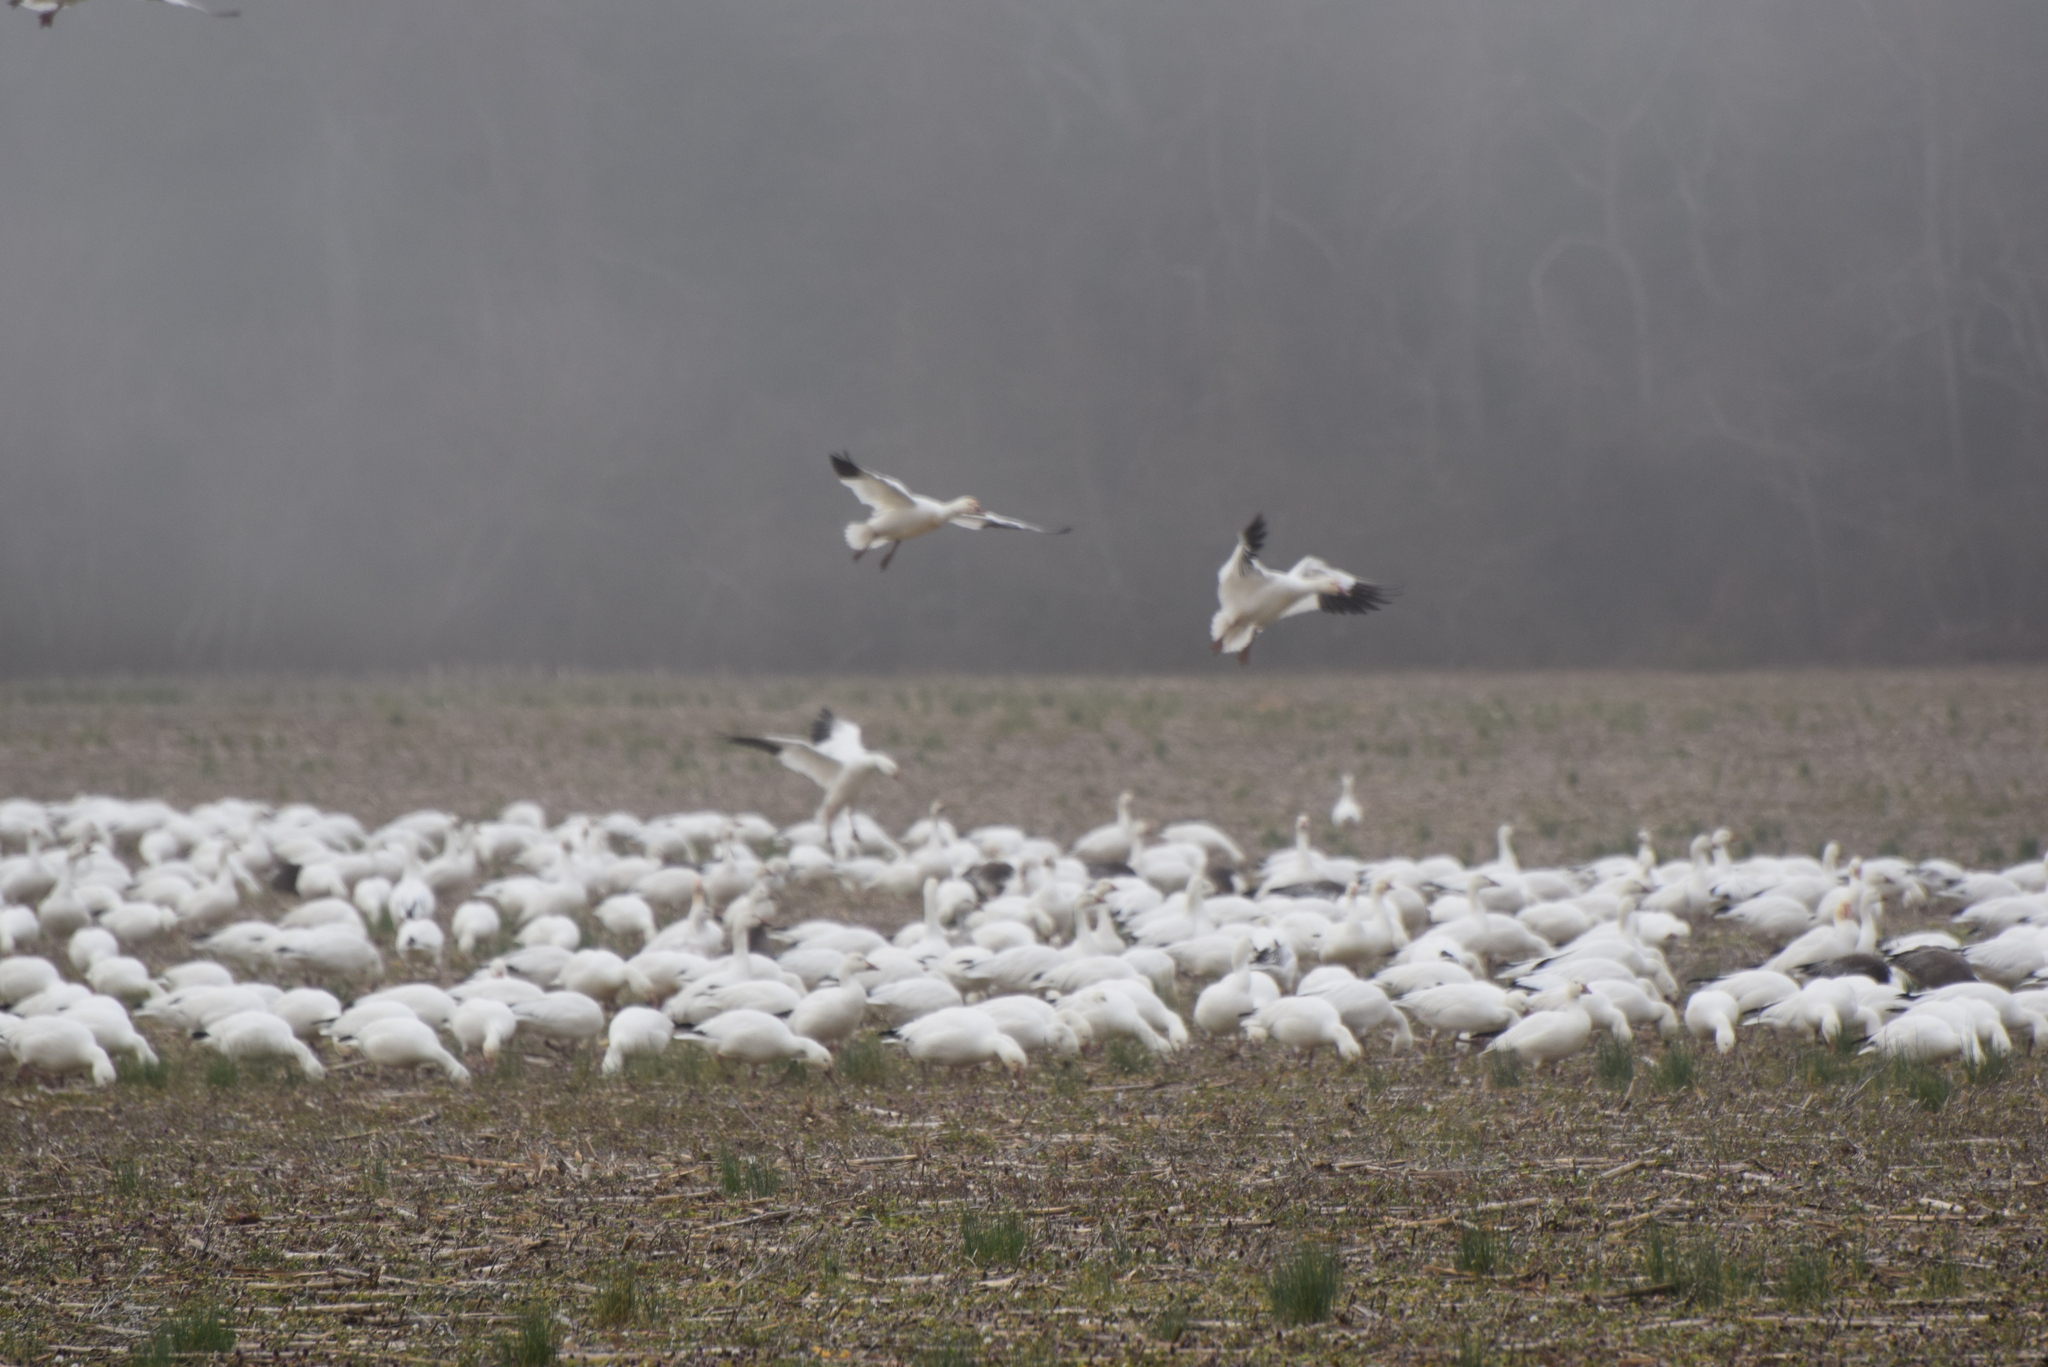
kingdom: Animalia
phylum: Chordata
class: Aves
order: Anseriformes
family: Anatidae
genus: Anser
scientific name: Anser caerulescens
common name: Snow goose
